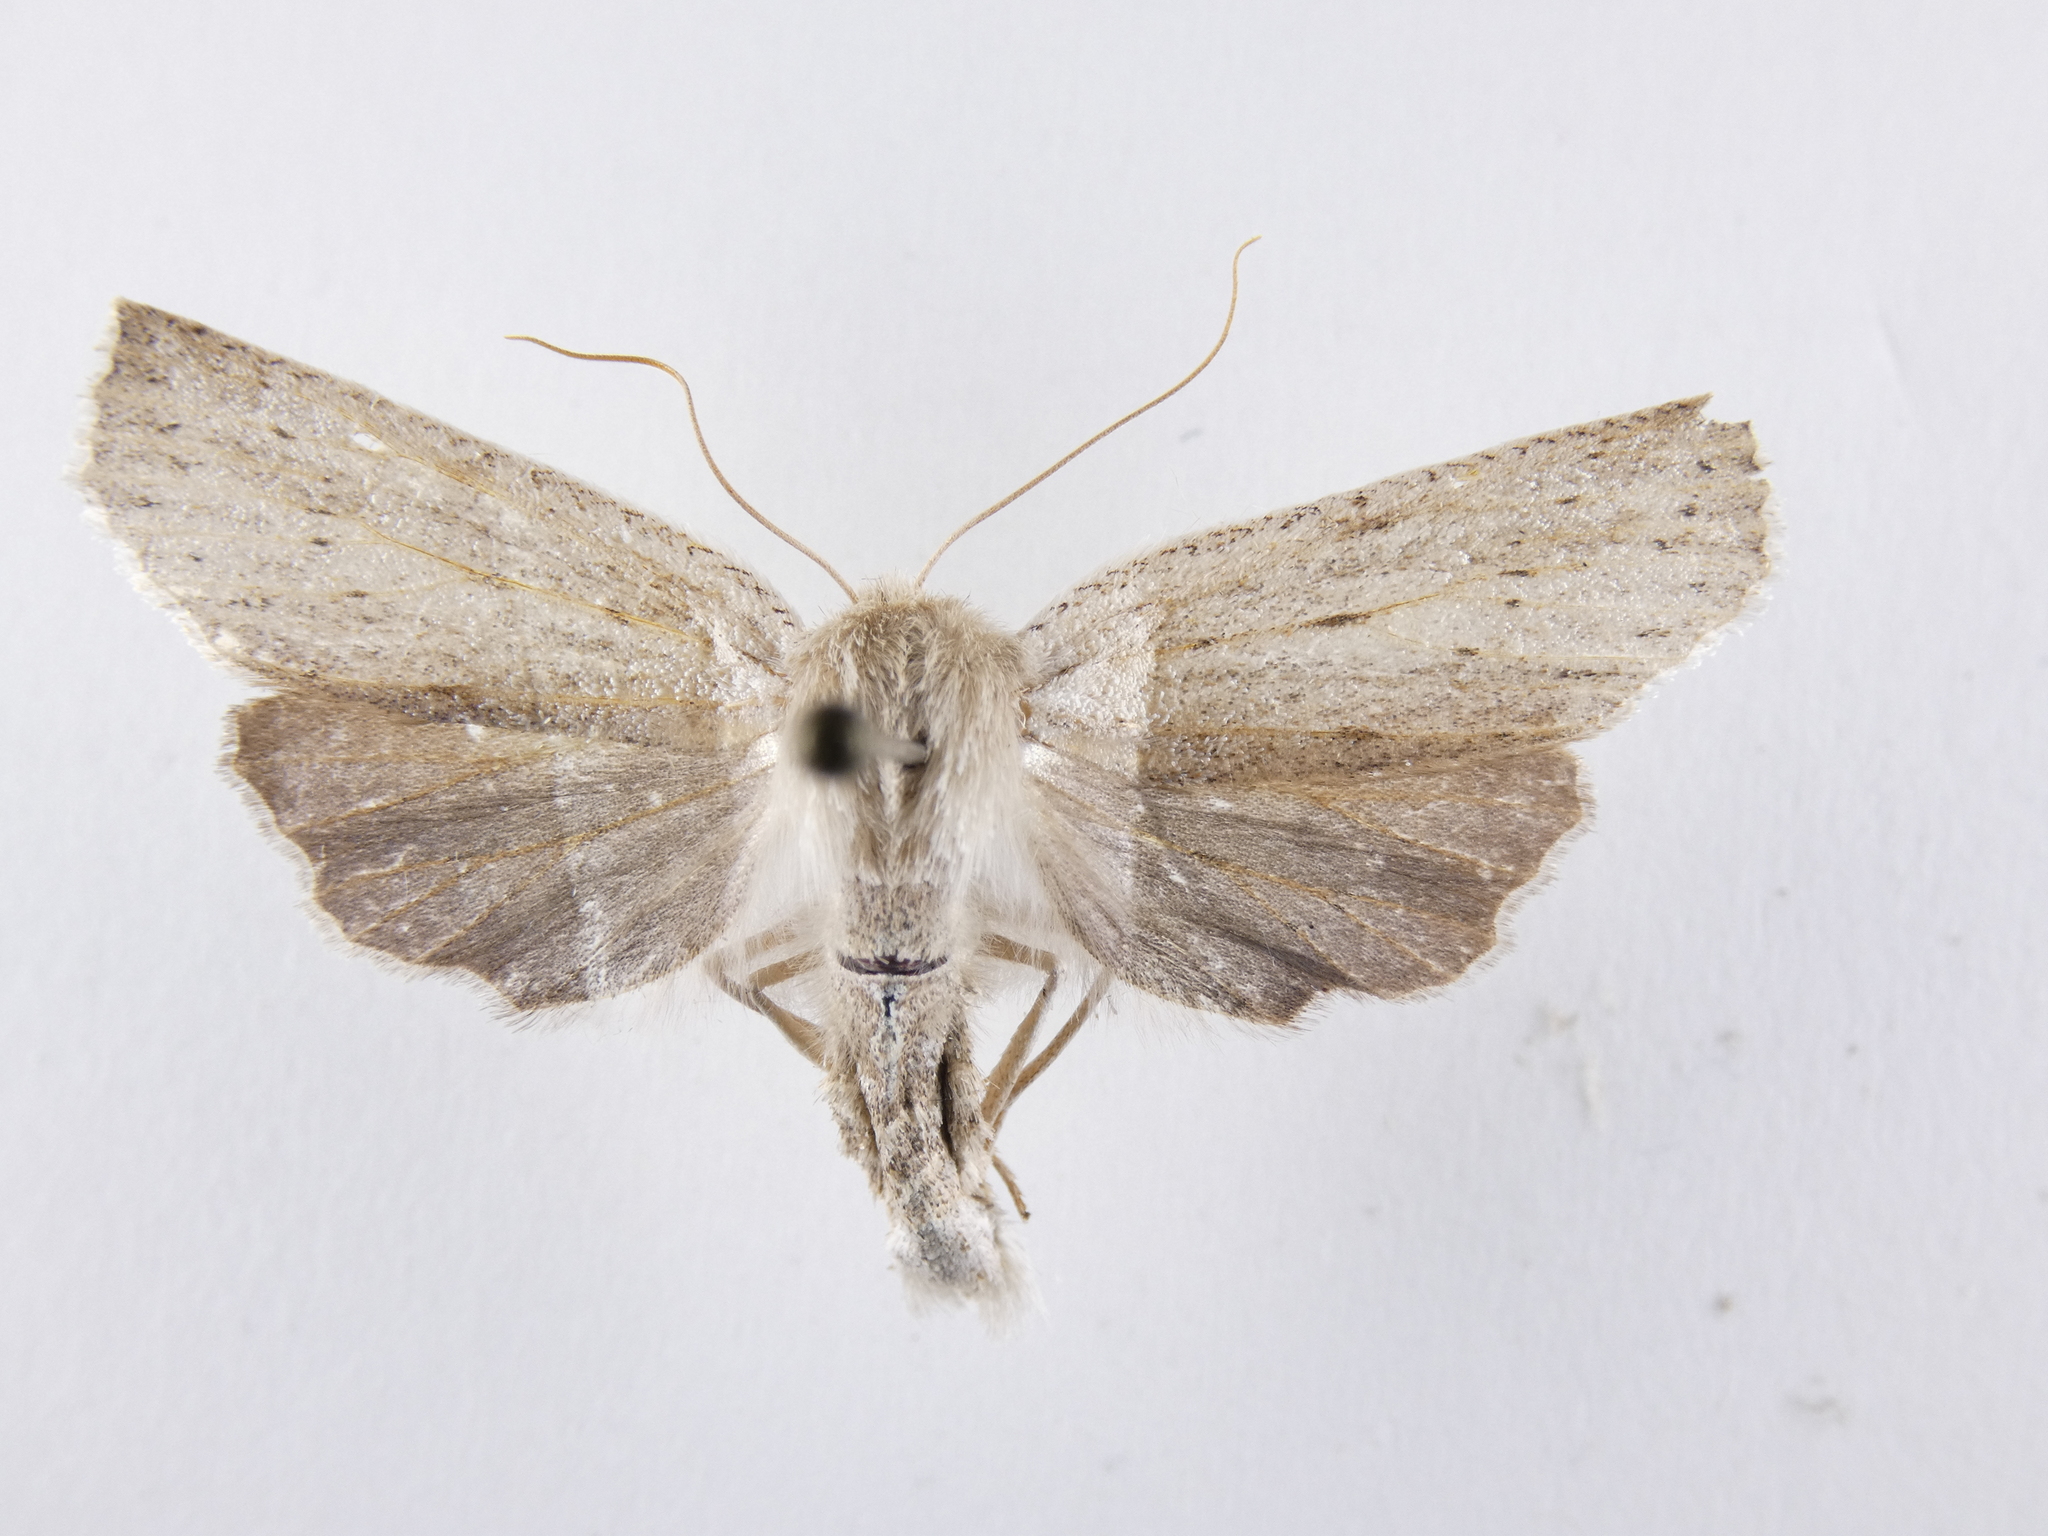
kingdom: Animalia
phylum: Arthropoda
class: Insecta
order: Lepidoptera
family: Geometridae
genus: Declana
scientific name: Declana leptomera
